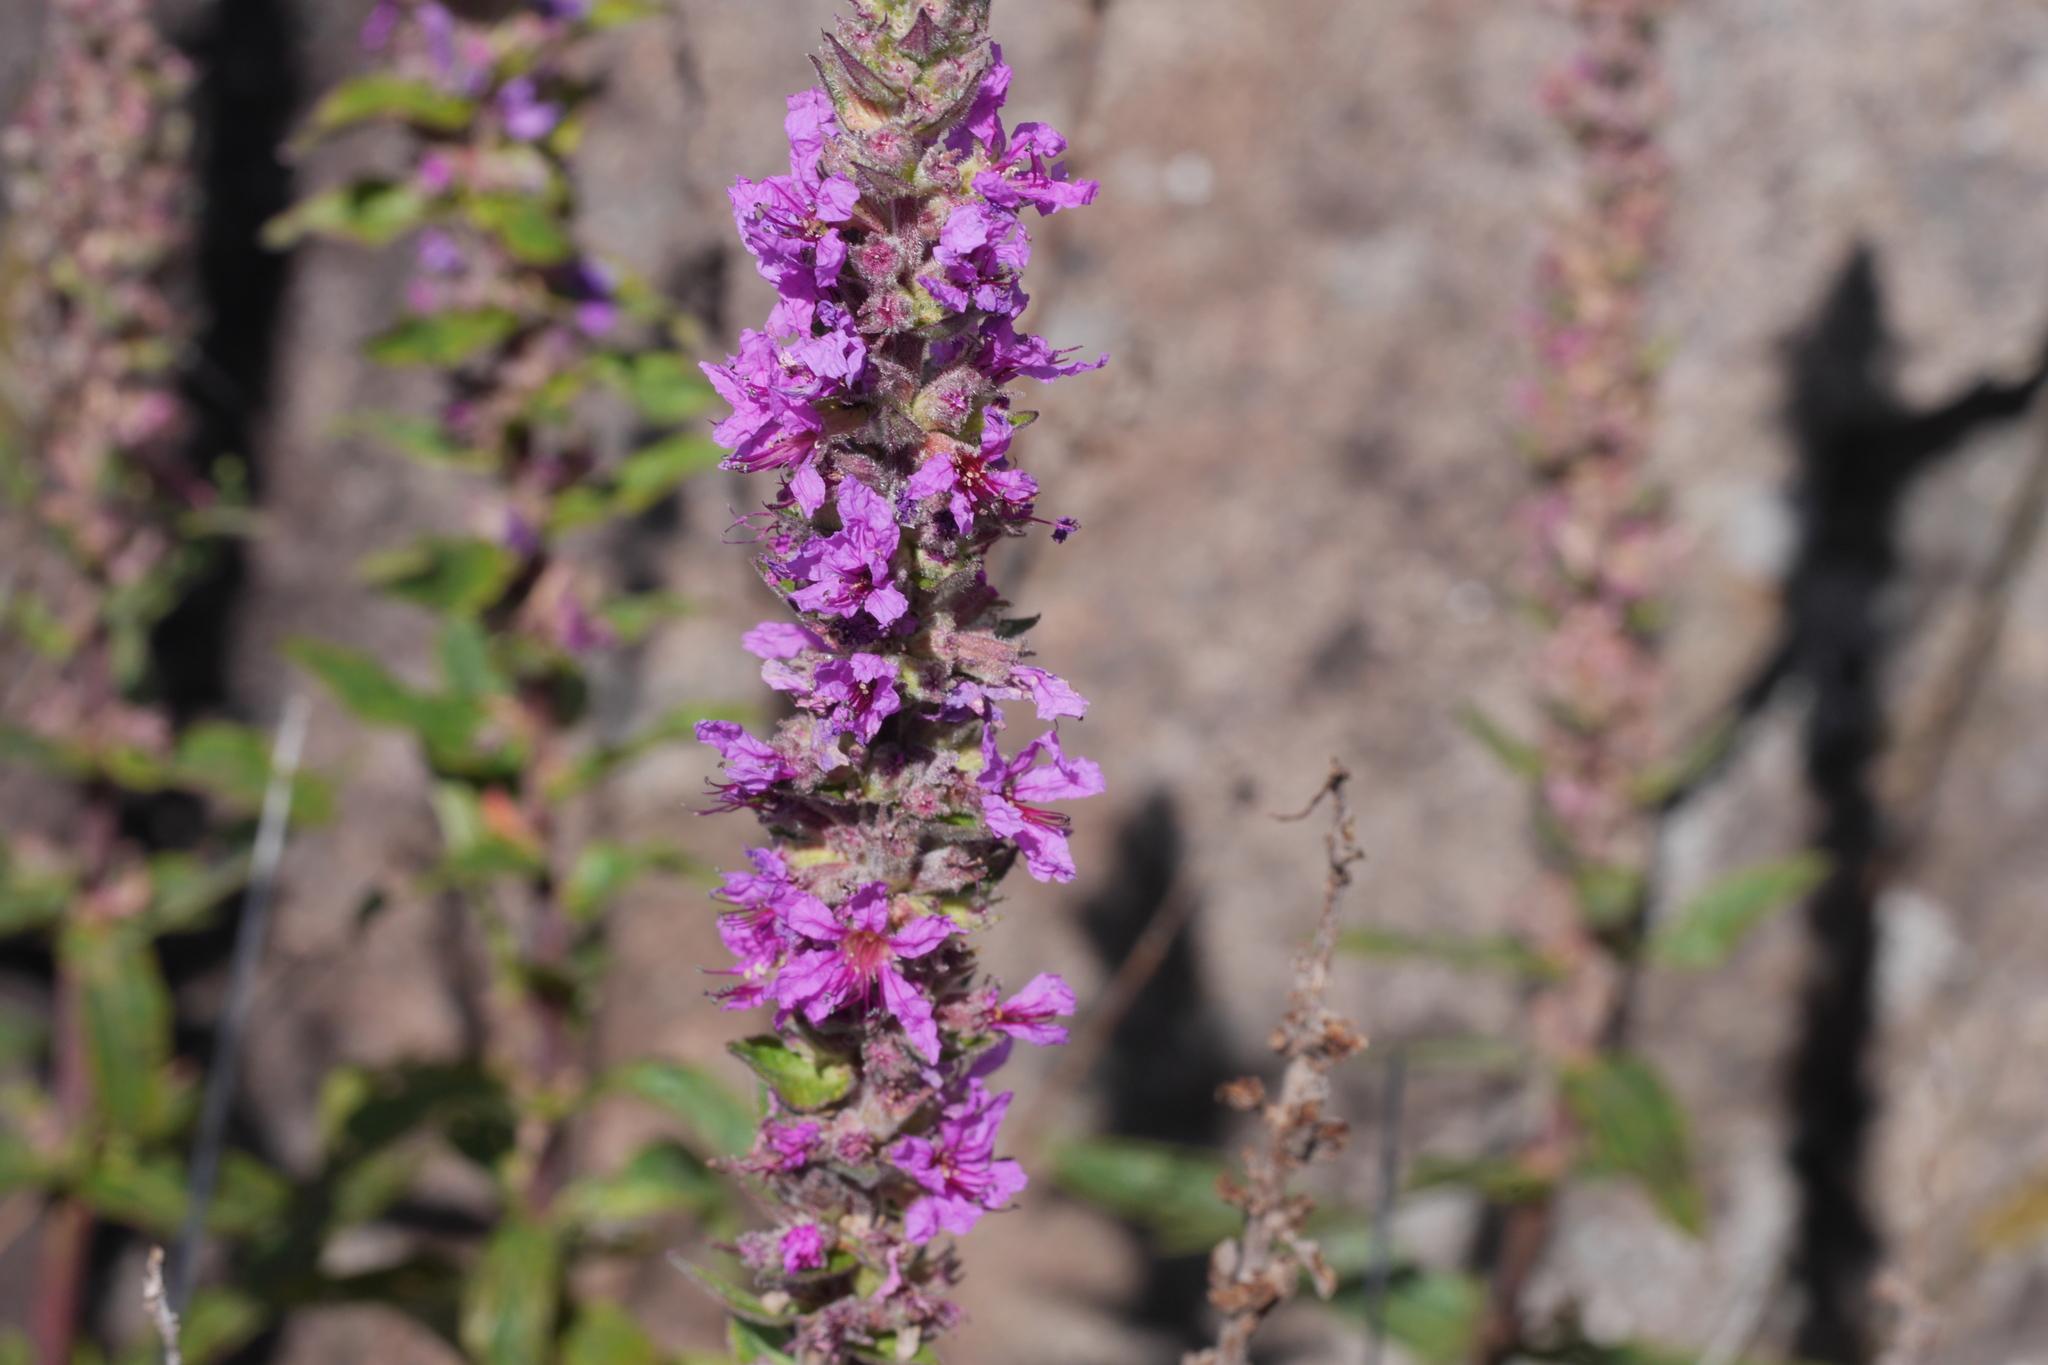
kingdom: Plantae
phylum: Tracheophyta
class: Magnoliopsida
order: Myrtales
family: Lythraceae
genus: Lythrum
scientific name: Lythrum salicaria
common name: Purple loosestrife
